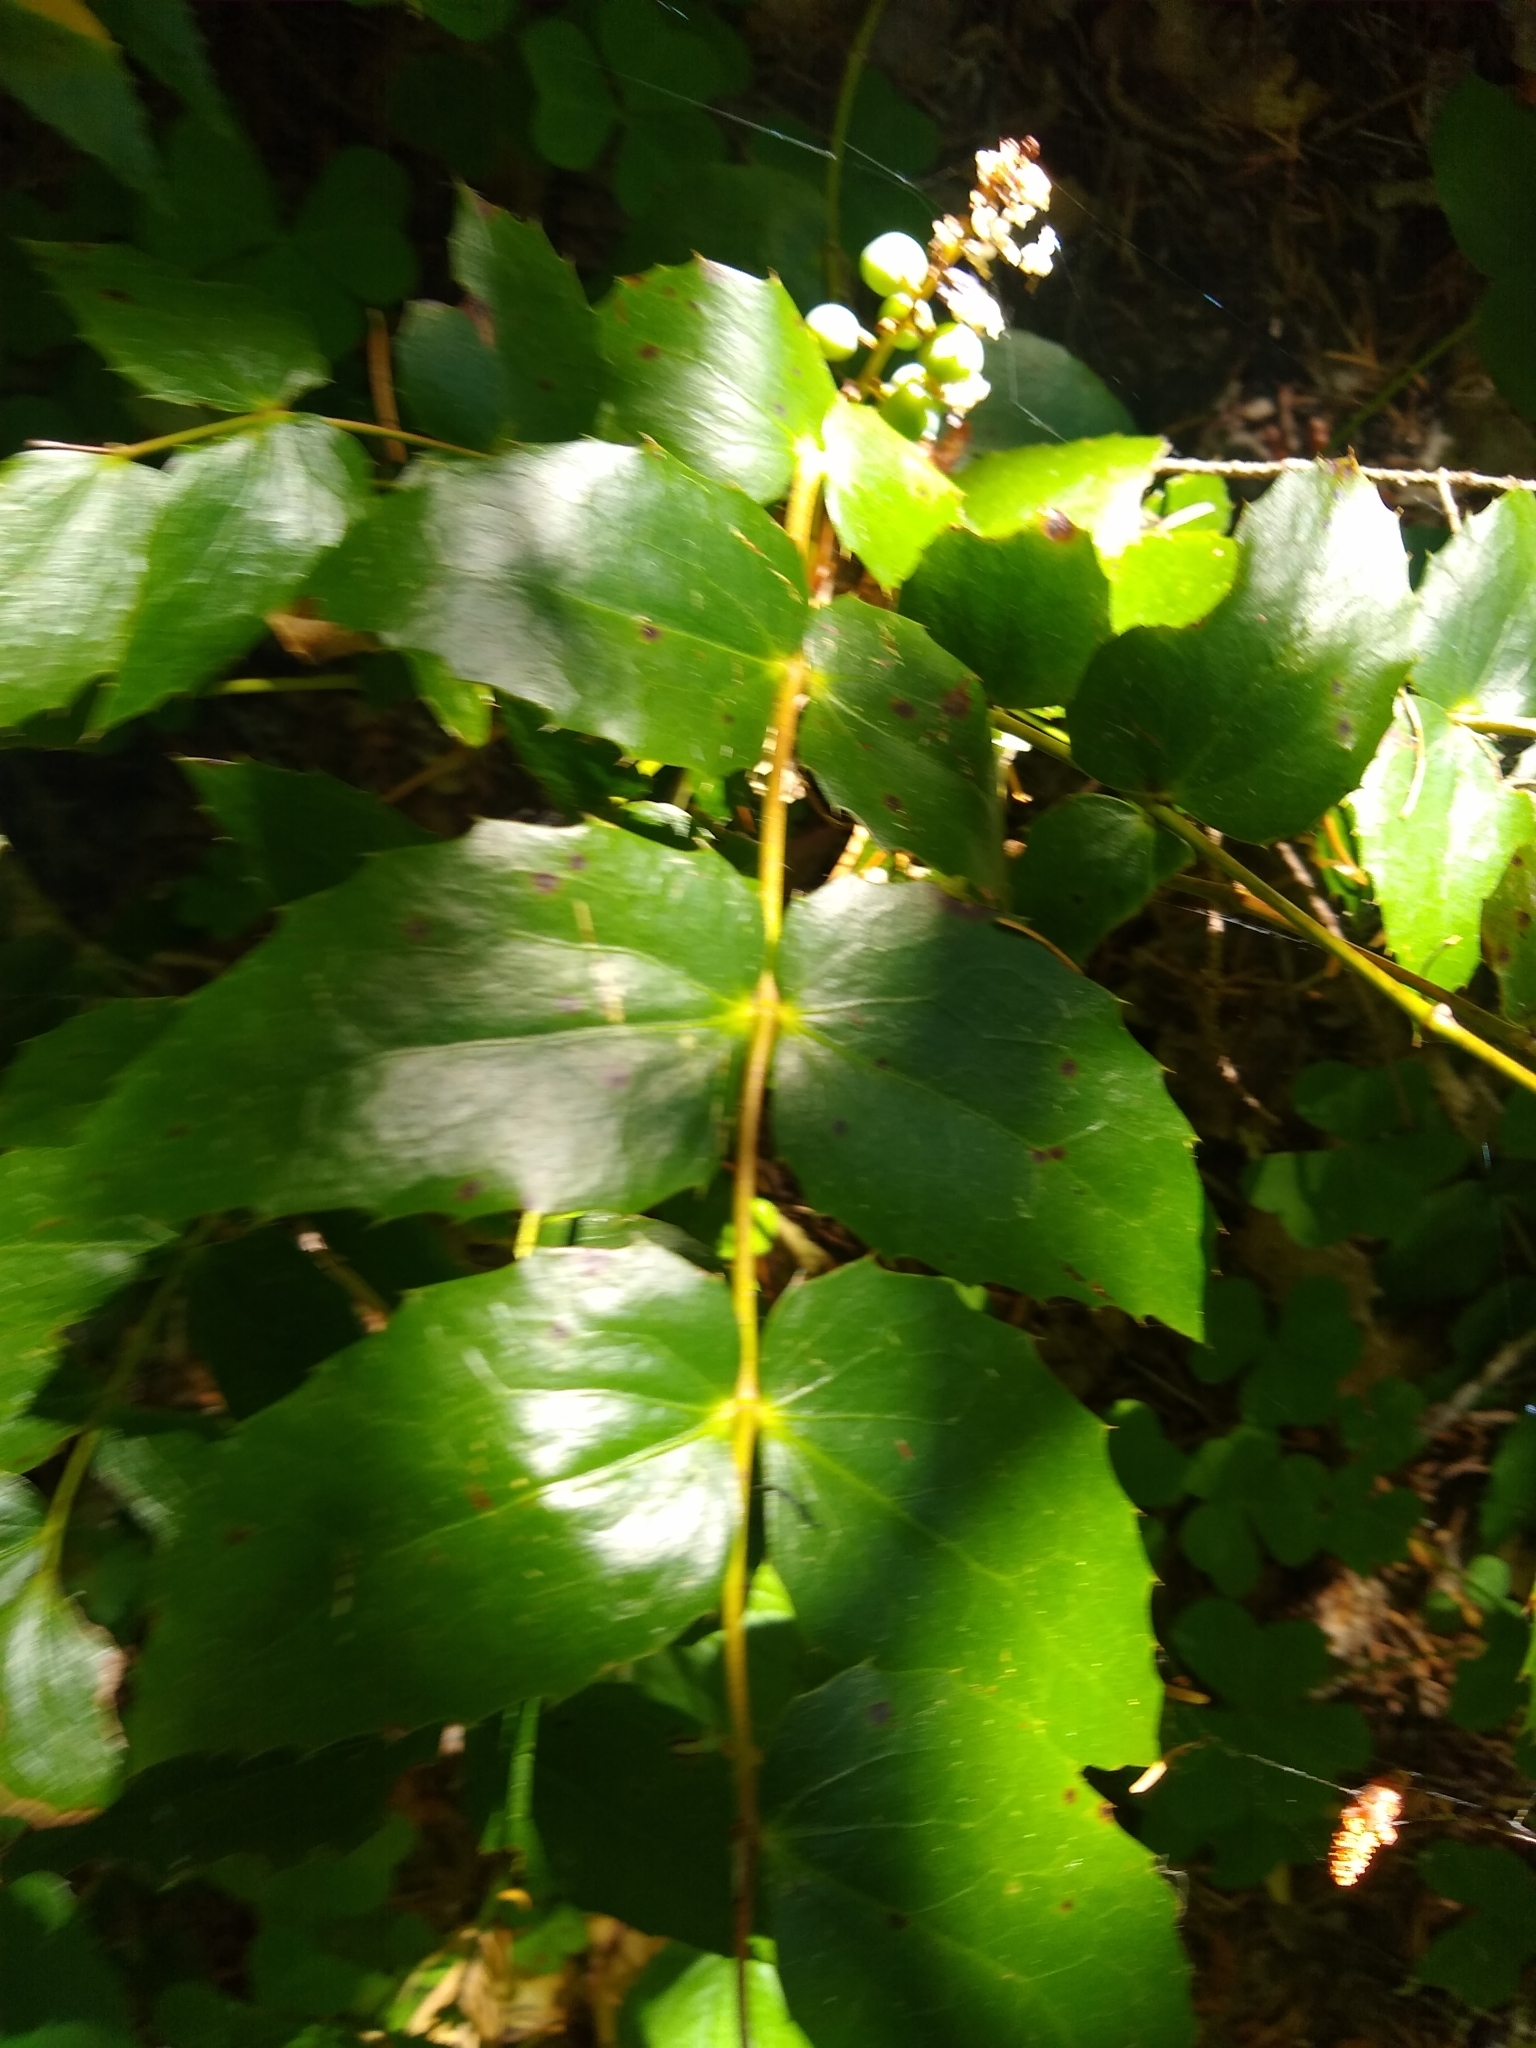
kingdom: Plantae
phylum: Tracheophyta
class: Magnoliopsida
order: Ranunculales
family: Berberidaceae
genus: Mahonia
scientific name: Mahonia nervosa
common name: Cascade oregon-grape
